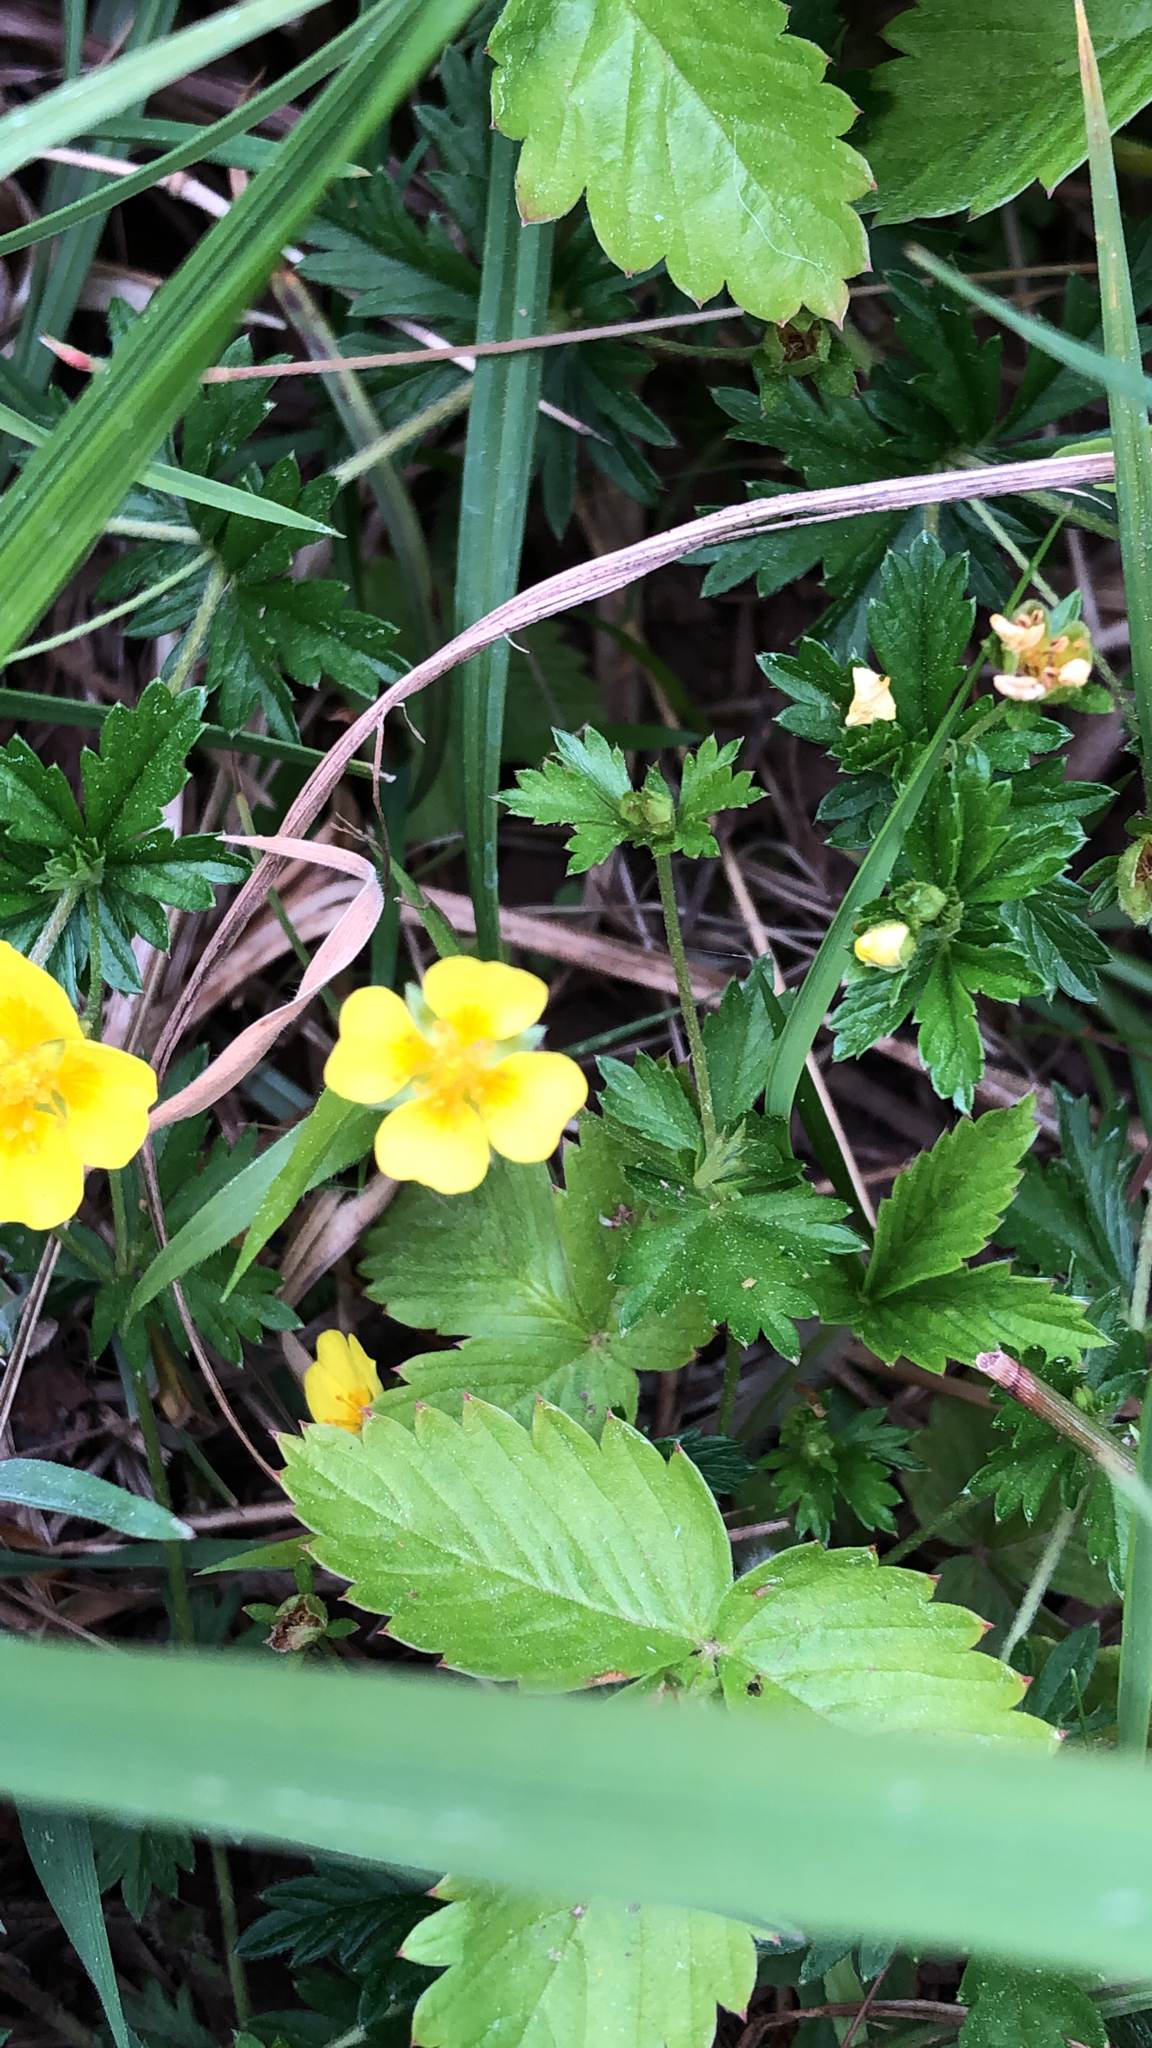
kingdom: Plantae
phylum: Tracheophyta
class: Magnoliopsida
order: Rosales
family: Rosaceae
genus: Potentilla
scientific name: Potentilla erecta
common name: Tormentil
